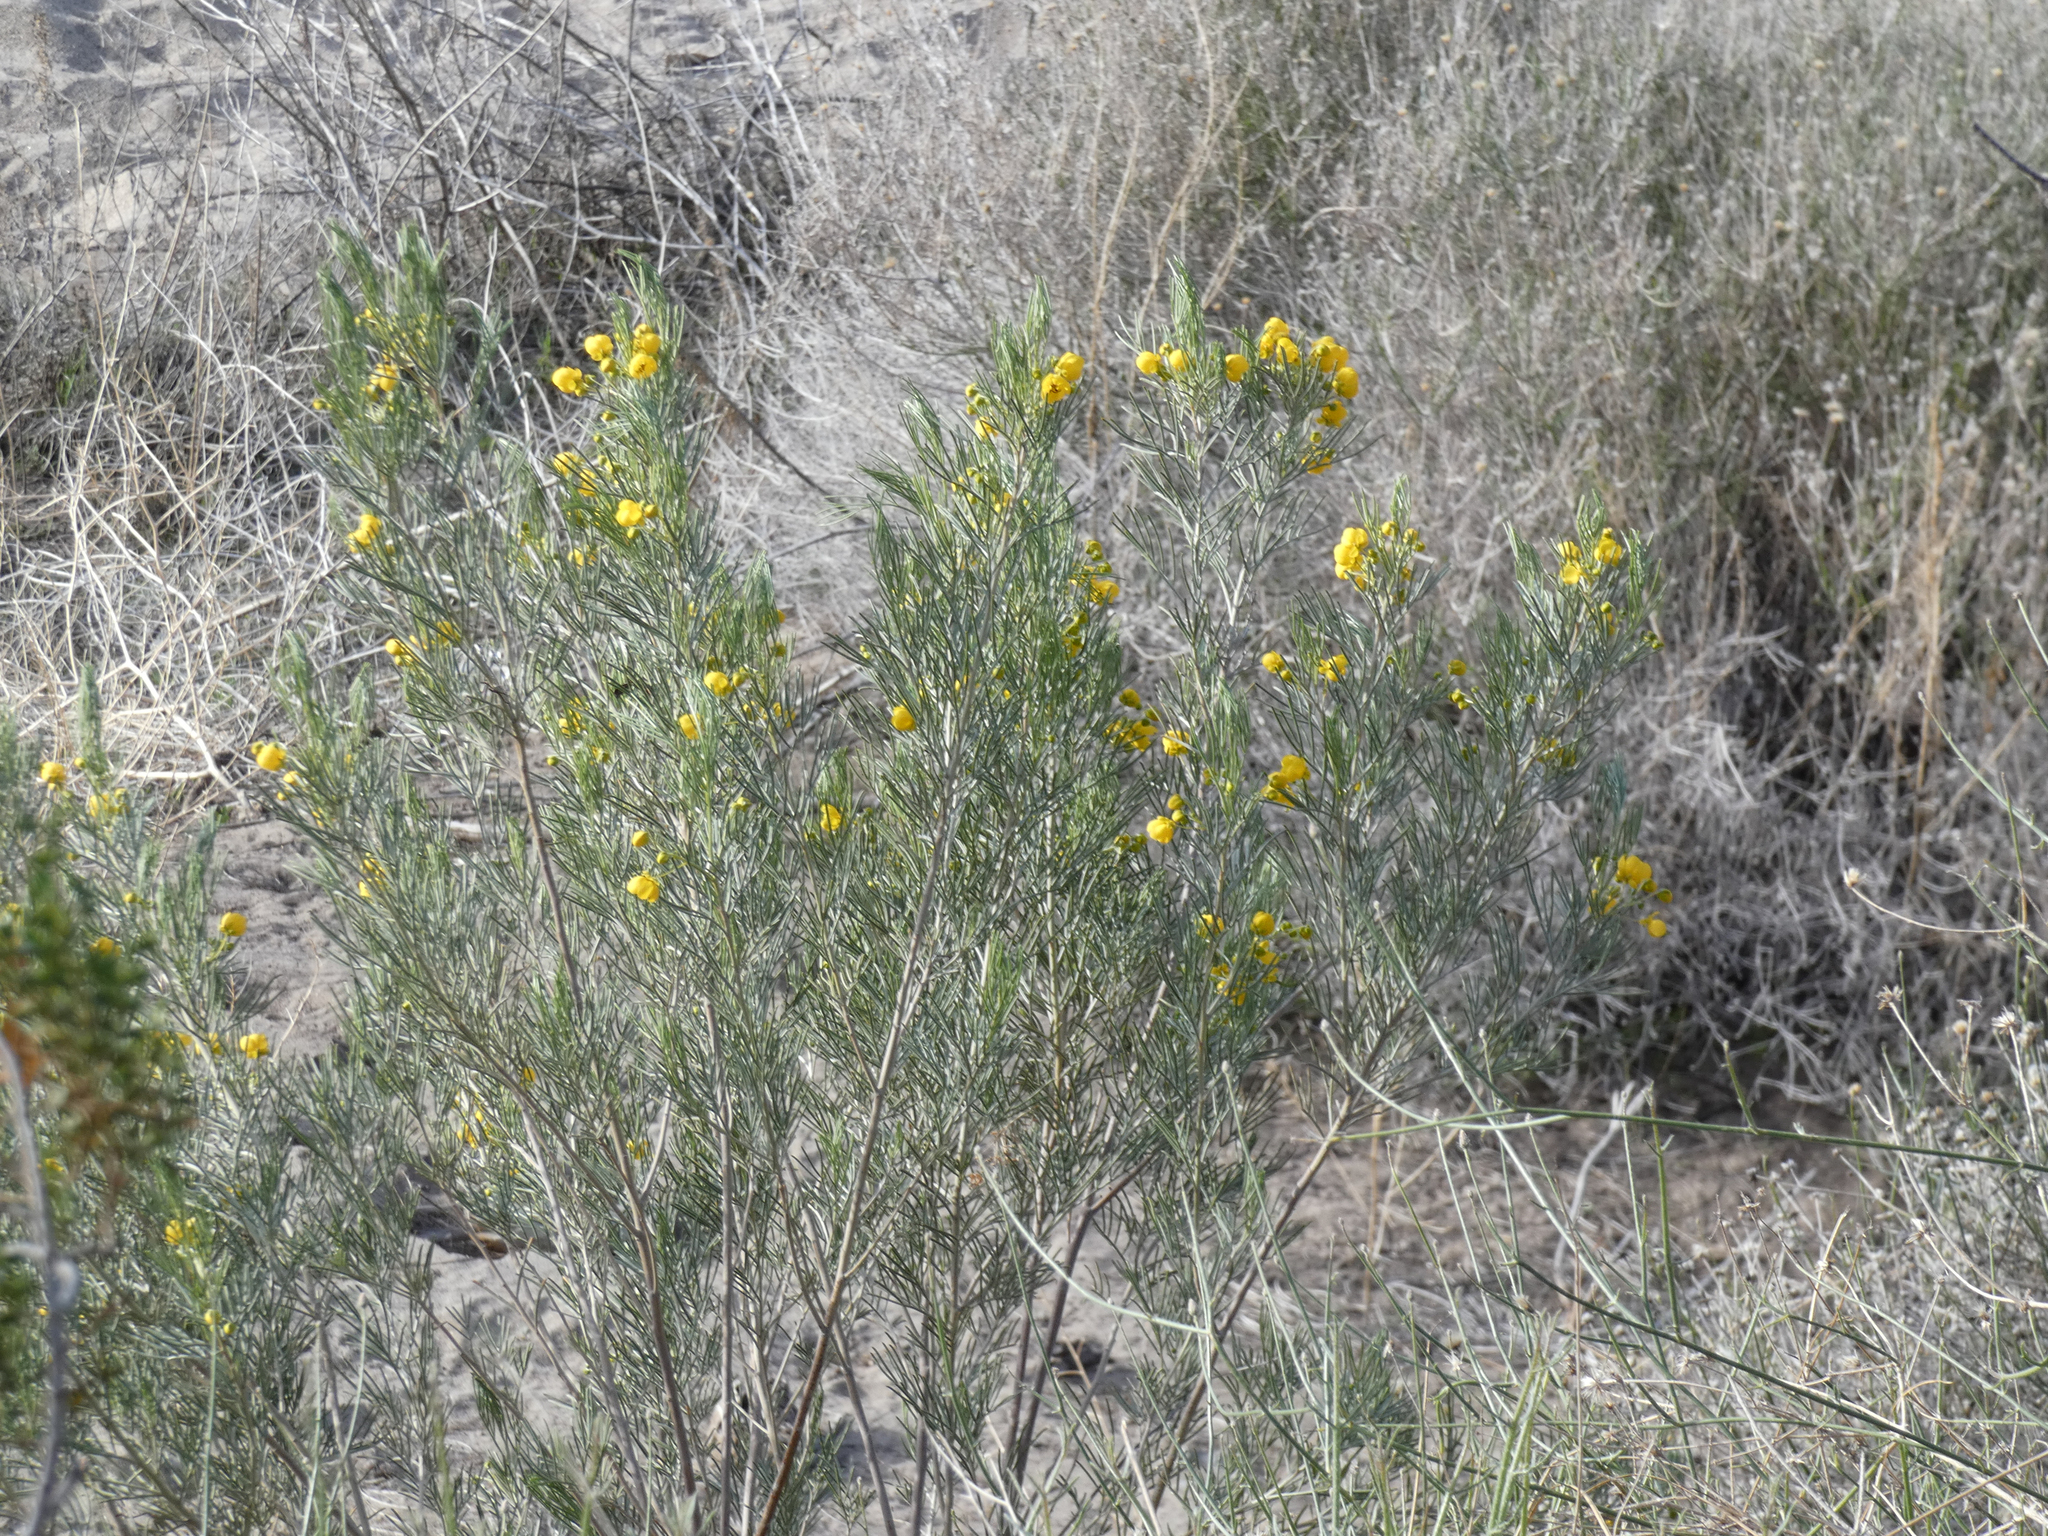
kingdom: Plantae
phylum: Tracheophyta
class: Magnoliopsida
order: Fabales
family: Fabaceae
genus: Senna
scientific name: Senna artemisioides
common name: Burnt-leaved acacia
